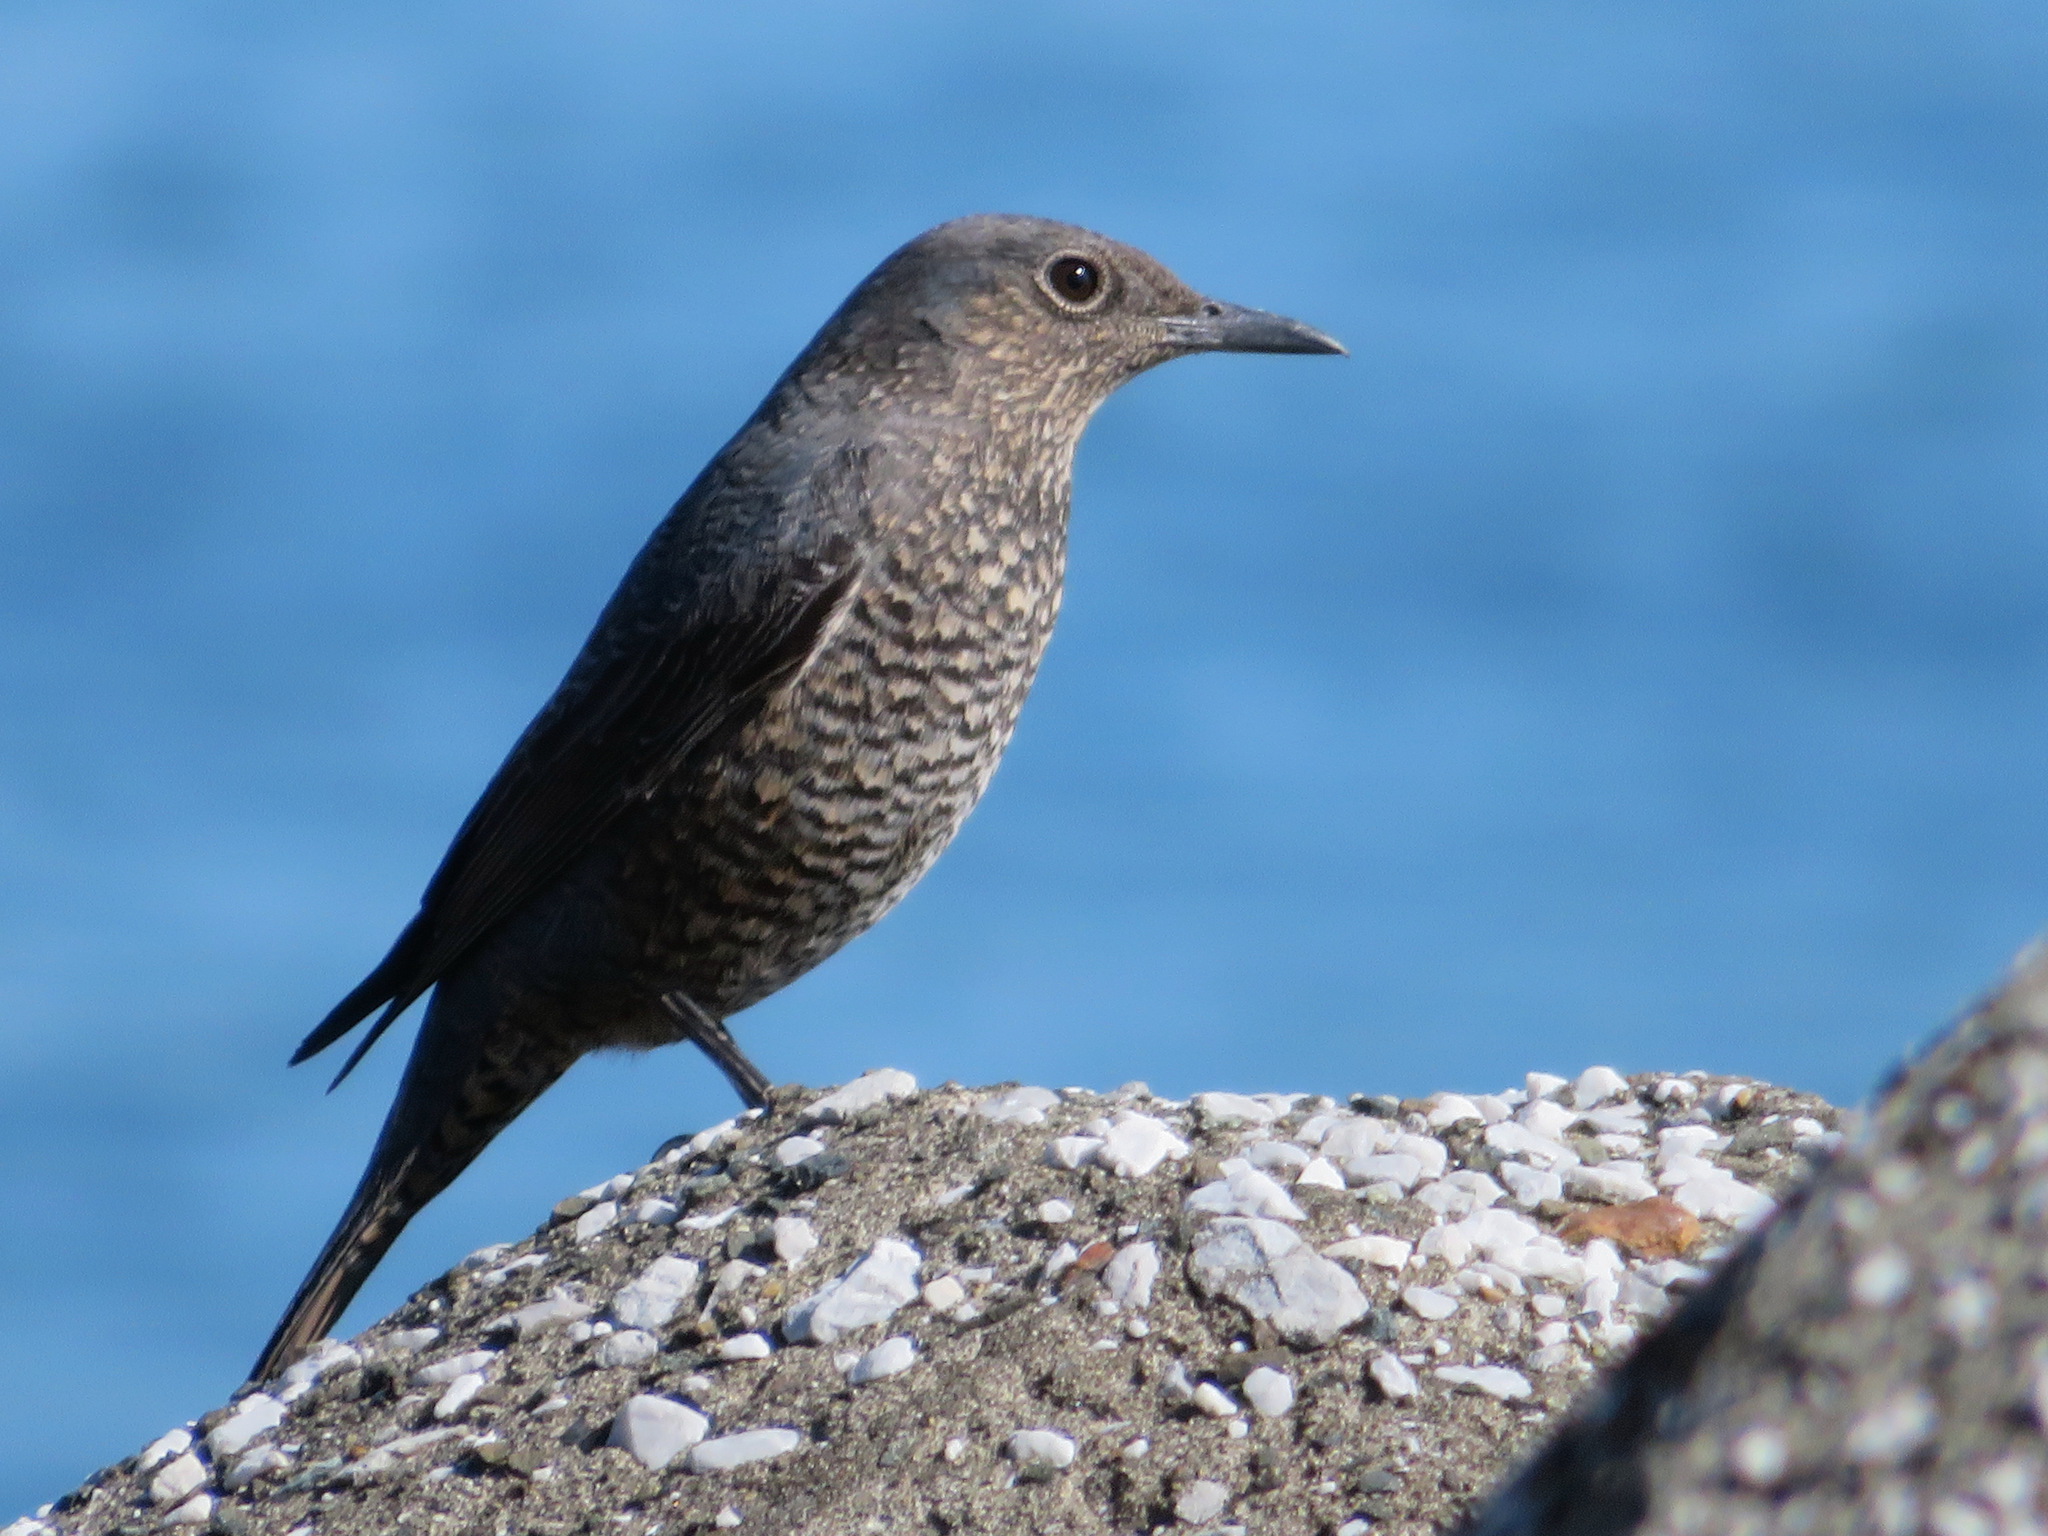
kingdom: Animalia
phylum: Chordata
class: Aves
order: Passeriformes
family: Muscicapidae
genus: Monticola
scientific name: Monticola solitarius
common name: Blue rock thrush
